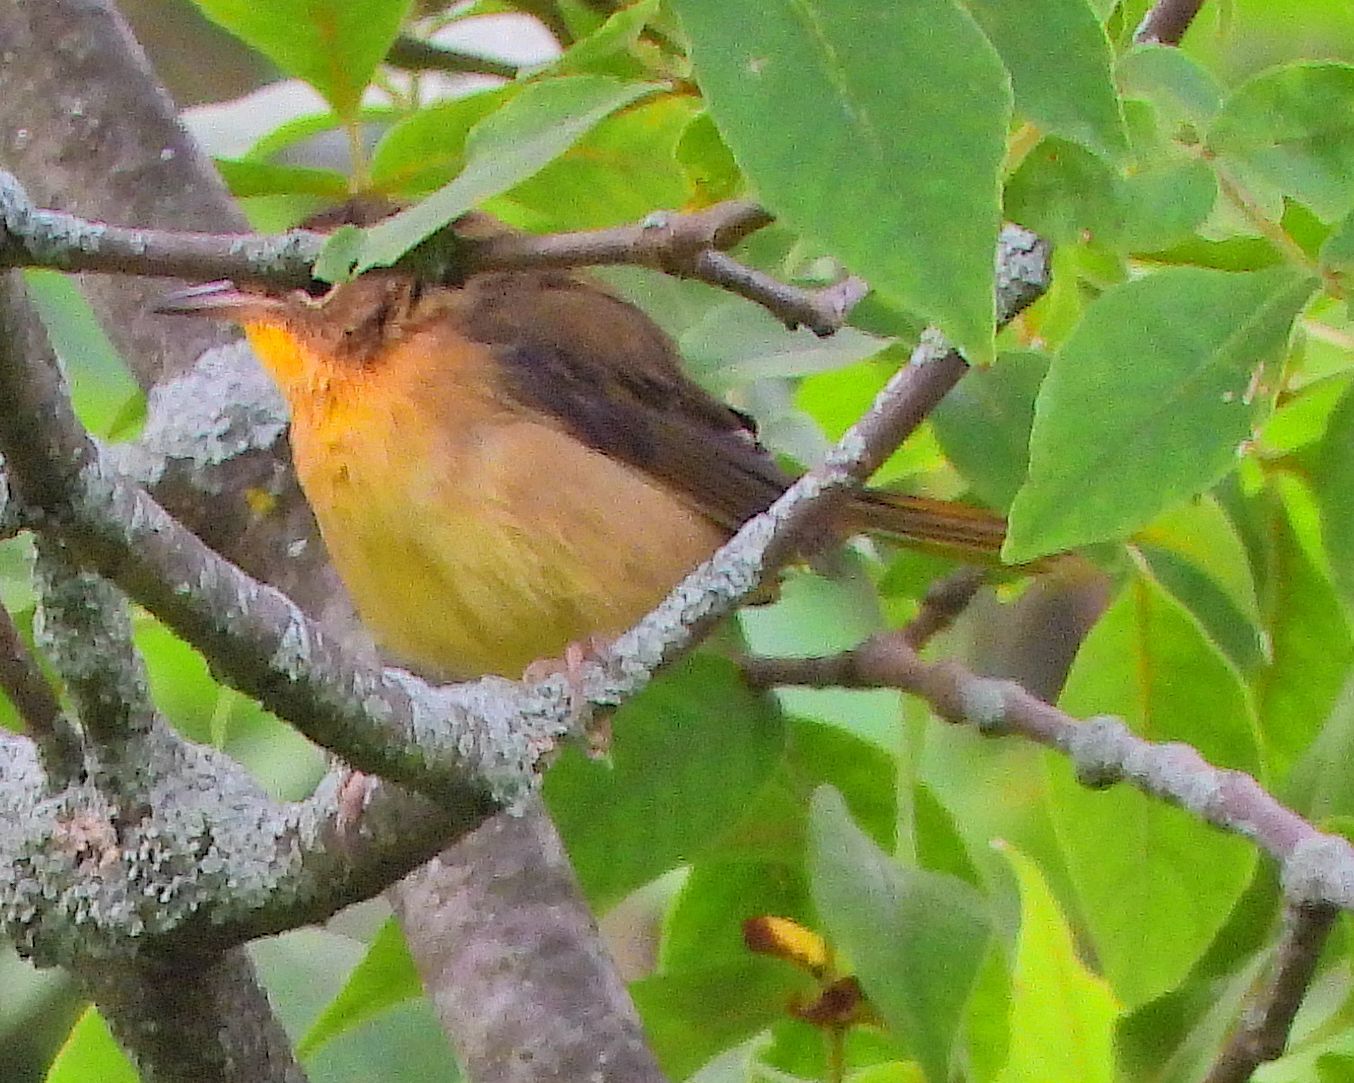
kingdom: Animalia
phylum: Chordata
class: Aves
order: Passeriformes
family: Parulidae
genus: Geothlypis
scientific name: Geothlypis trichas
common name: Common yellowthroat
